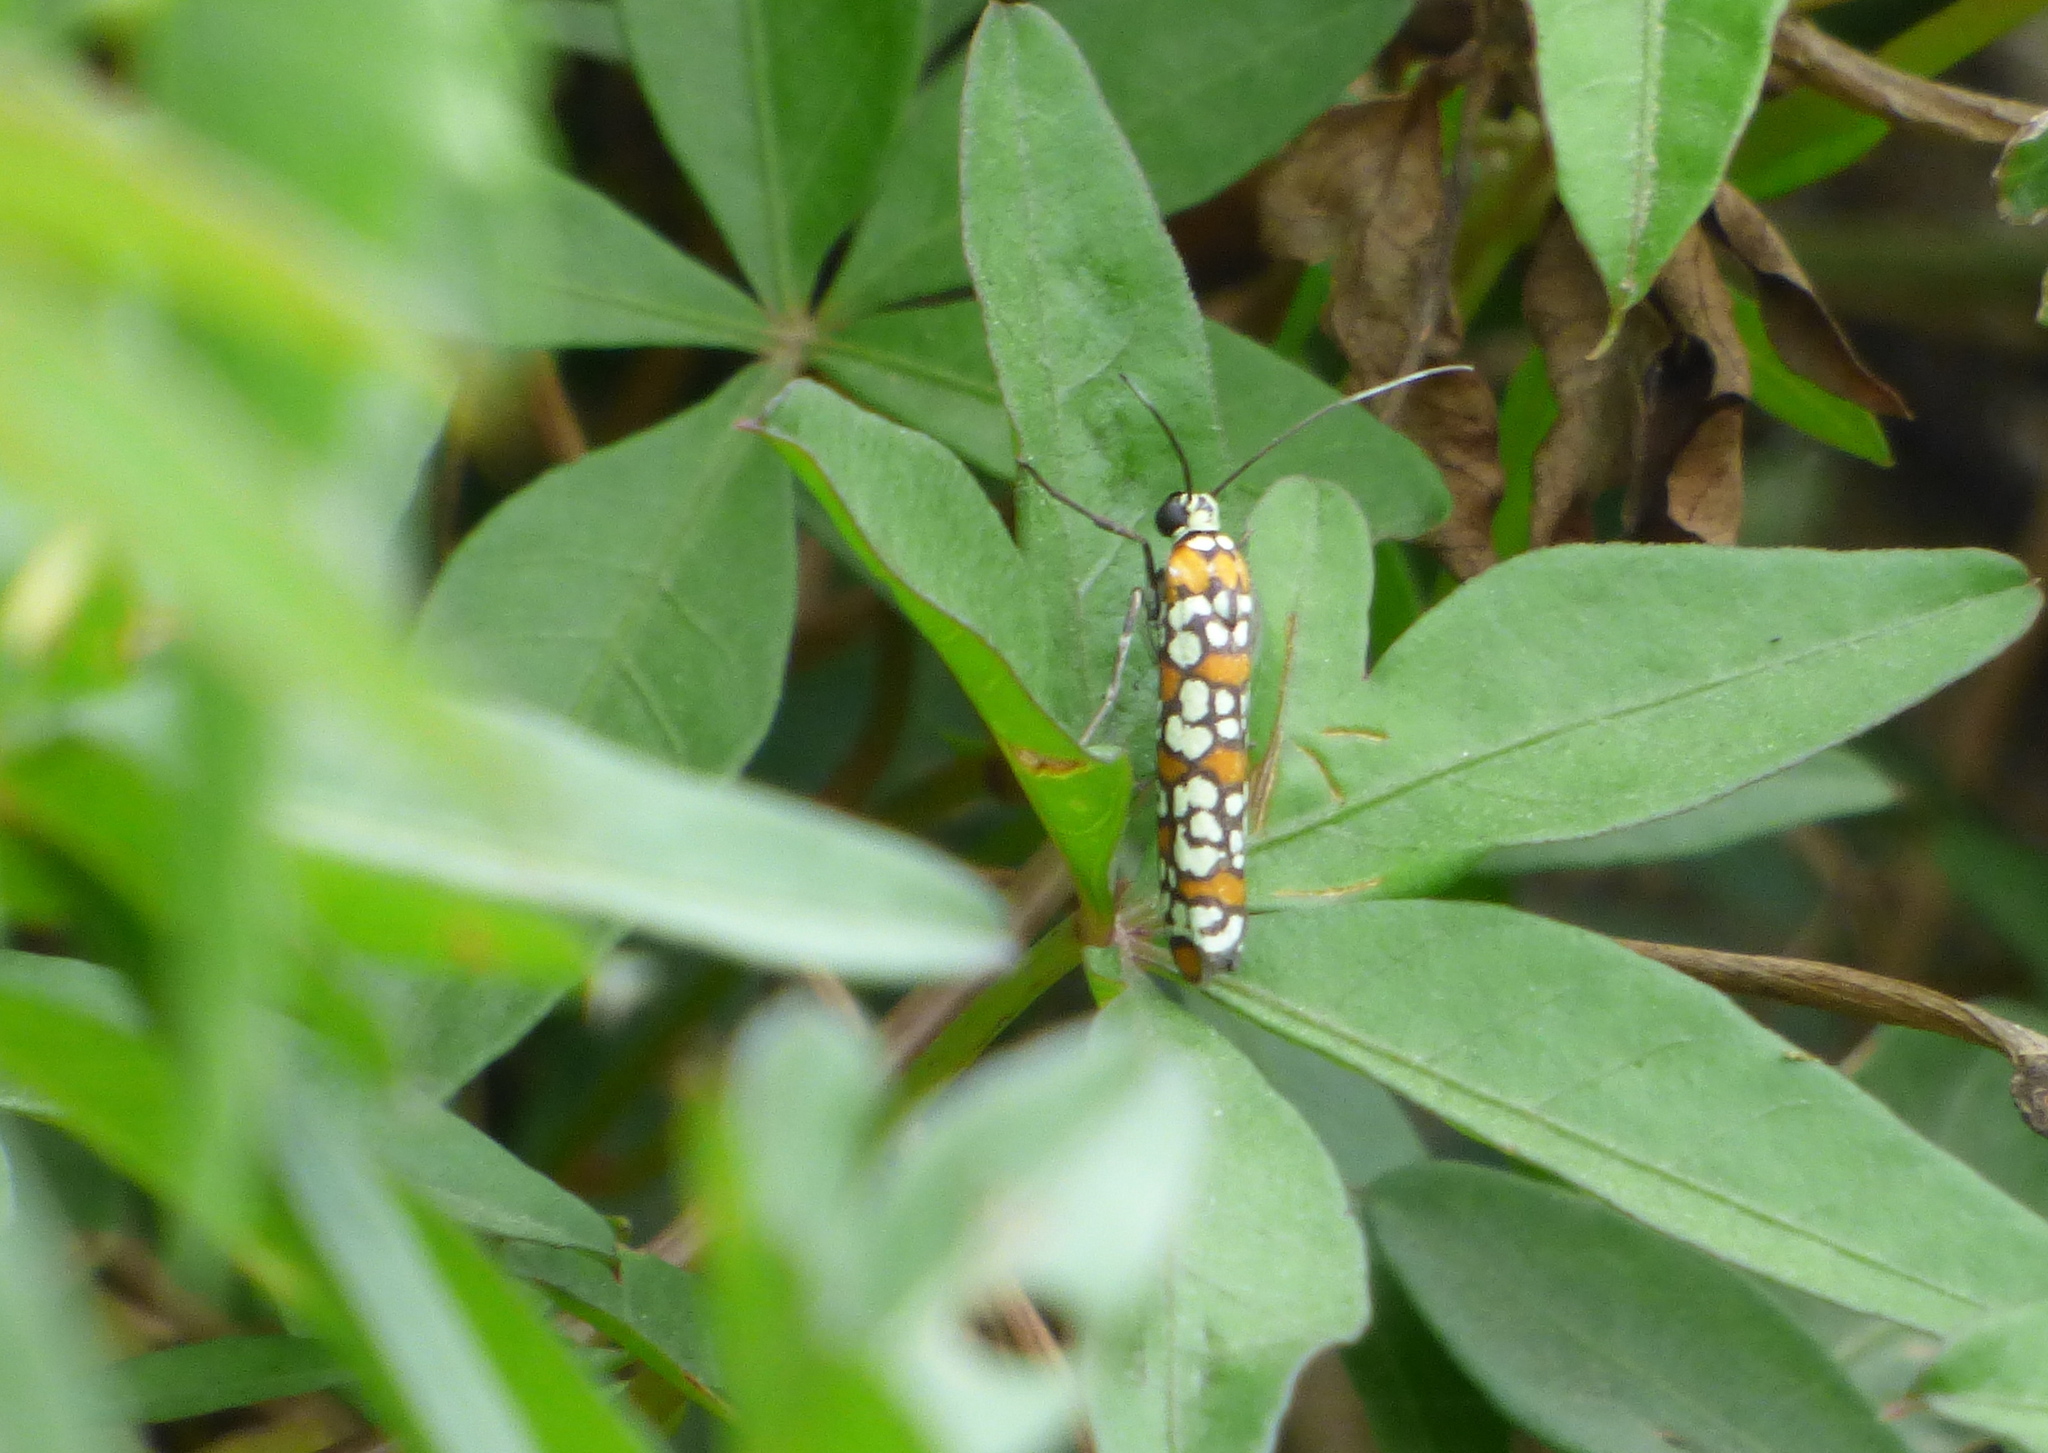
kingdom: Animalia
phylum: Arthropoda
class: Insecta
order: Lepidoptera
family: Attevidae
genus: Atteva
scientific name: Atteva punctella
